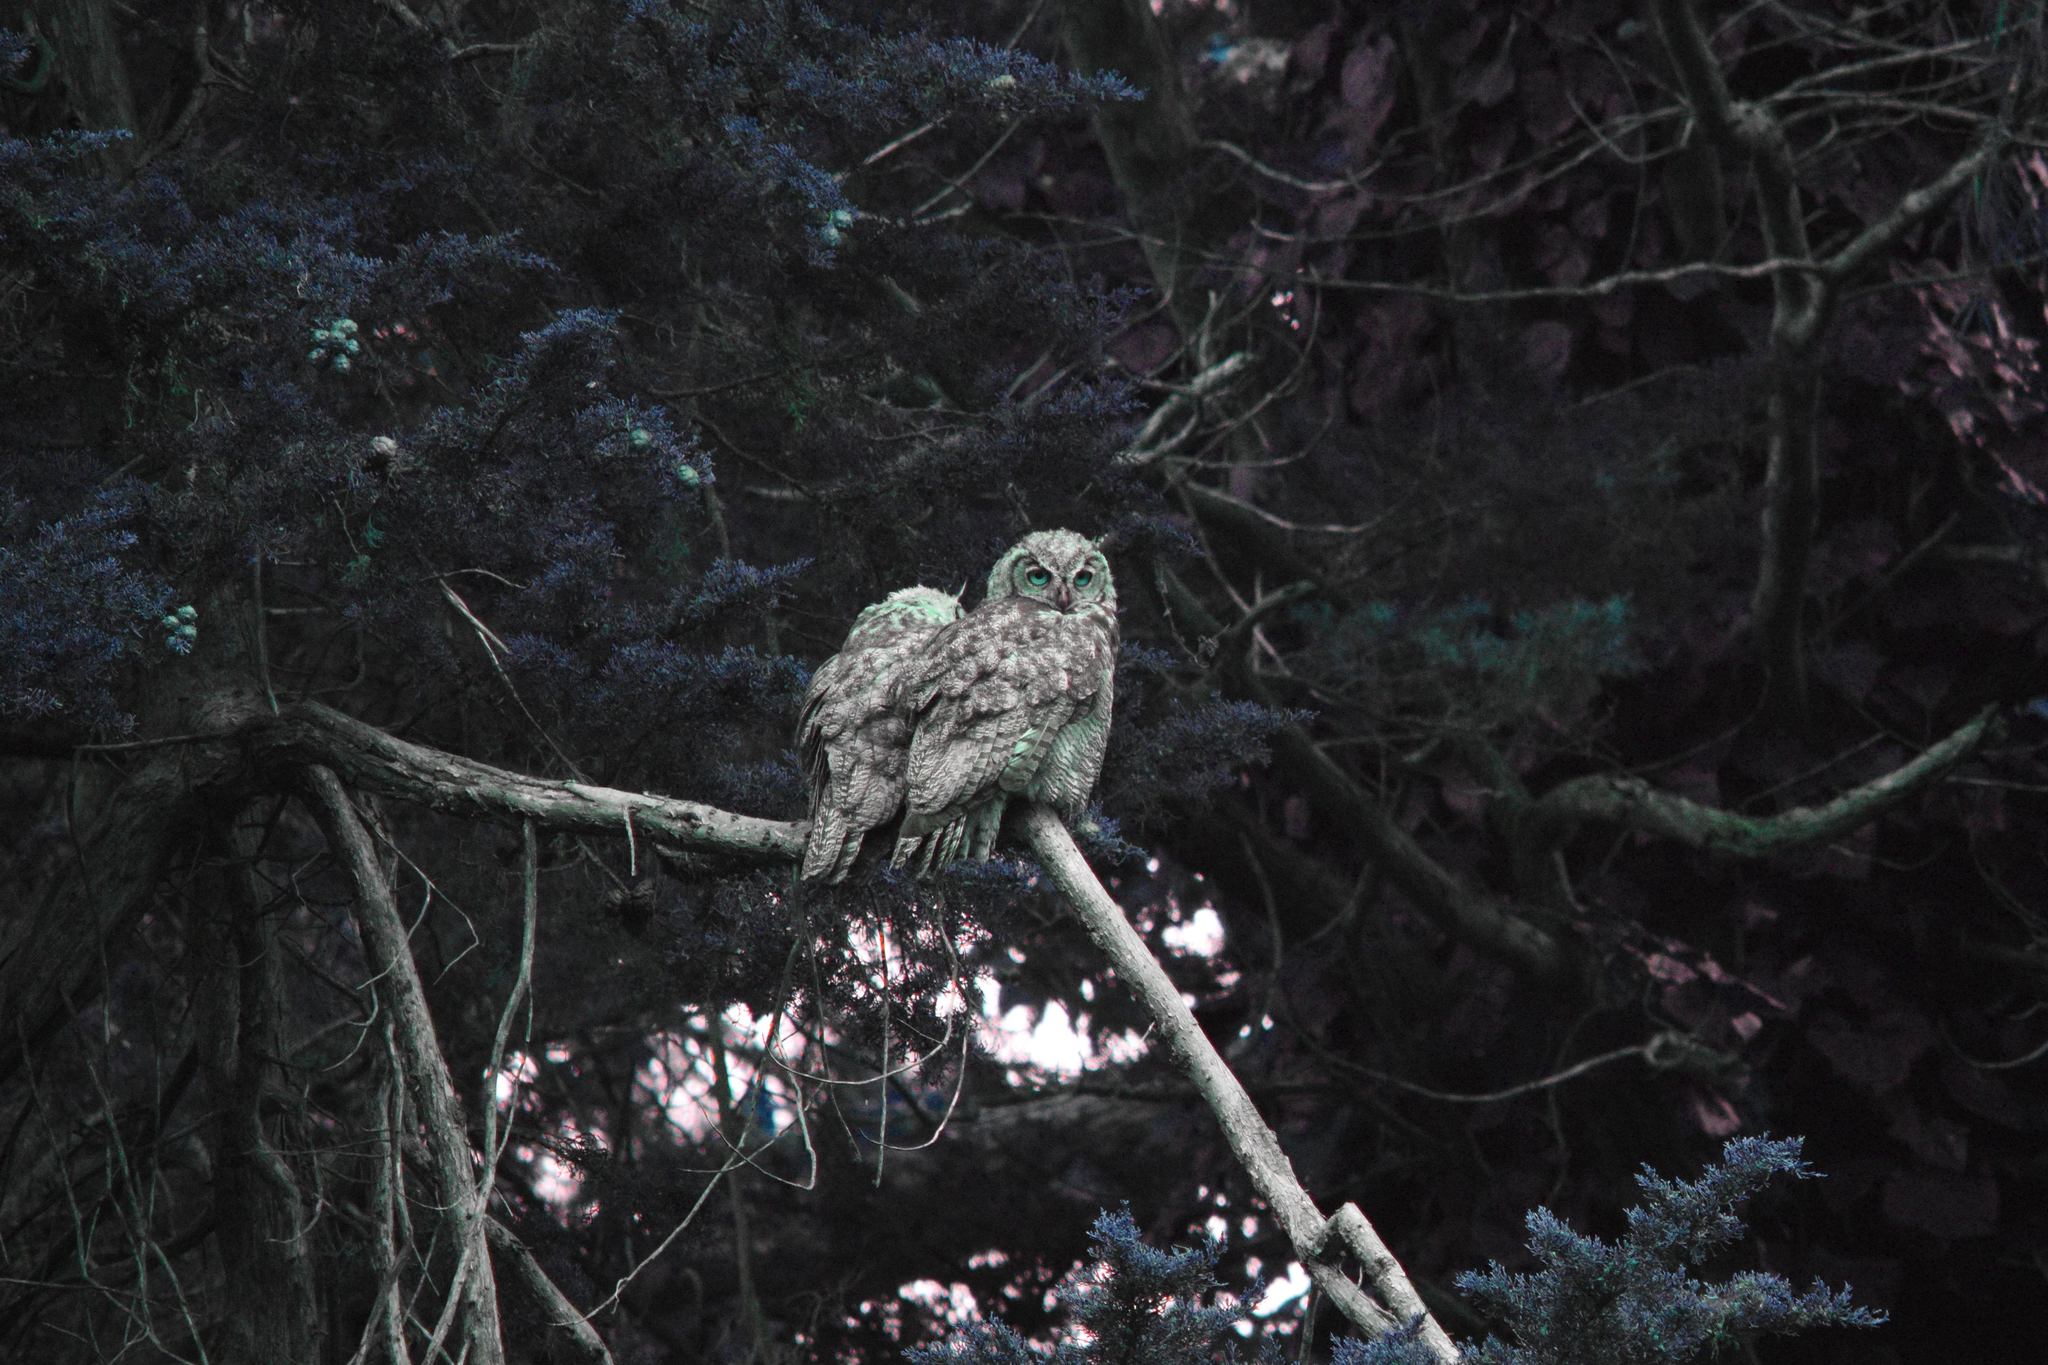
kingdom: Animalia
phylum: Chordata
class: Aves
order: Strigiformes
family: Strigidae
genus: Bubo
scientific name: Bubo virginianus
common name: Great horned owl
